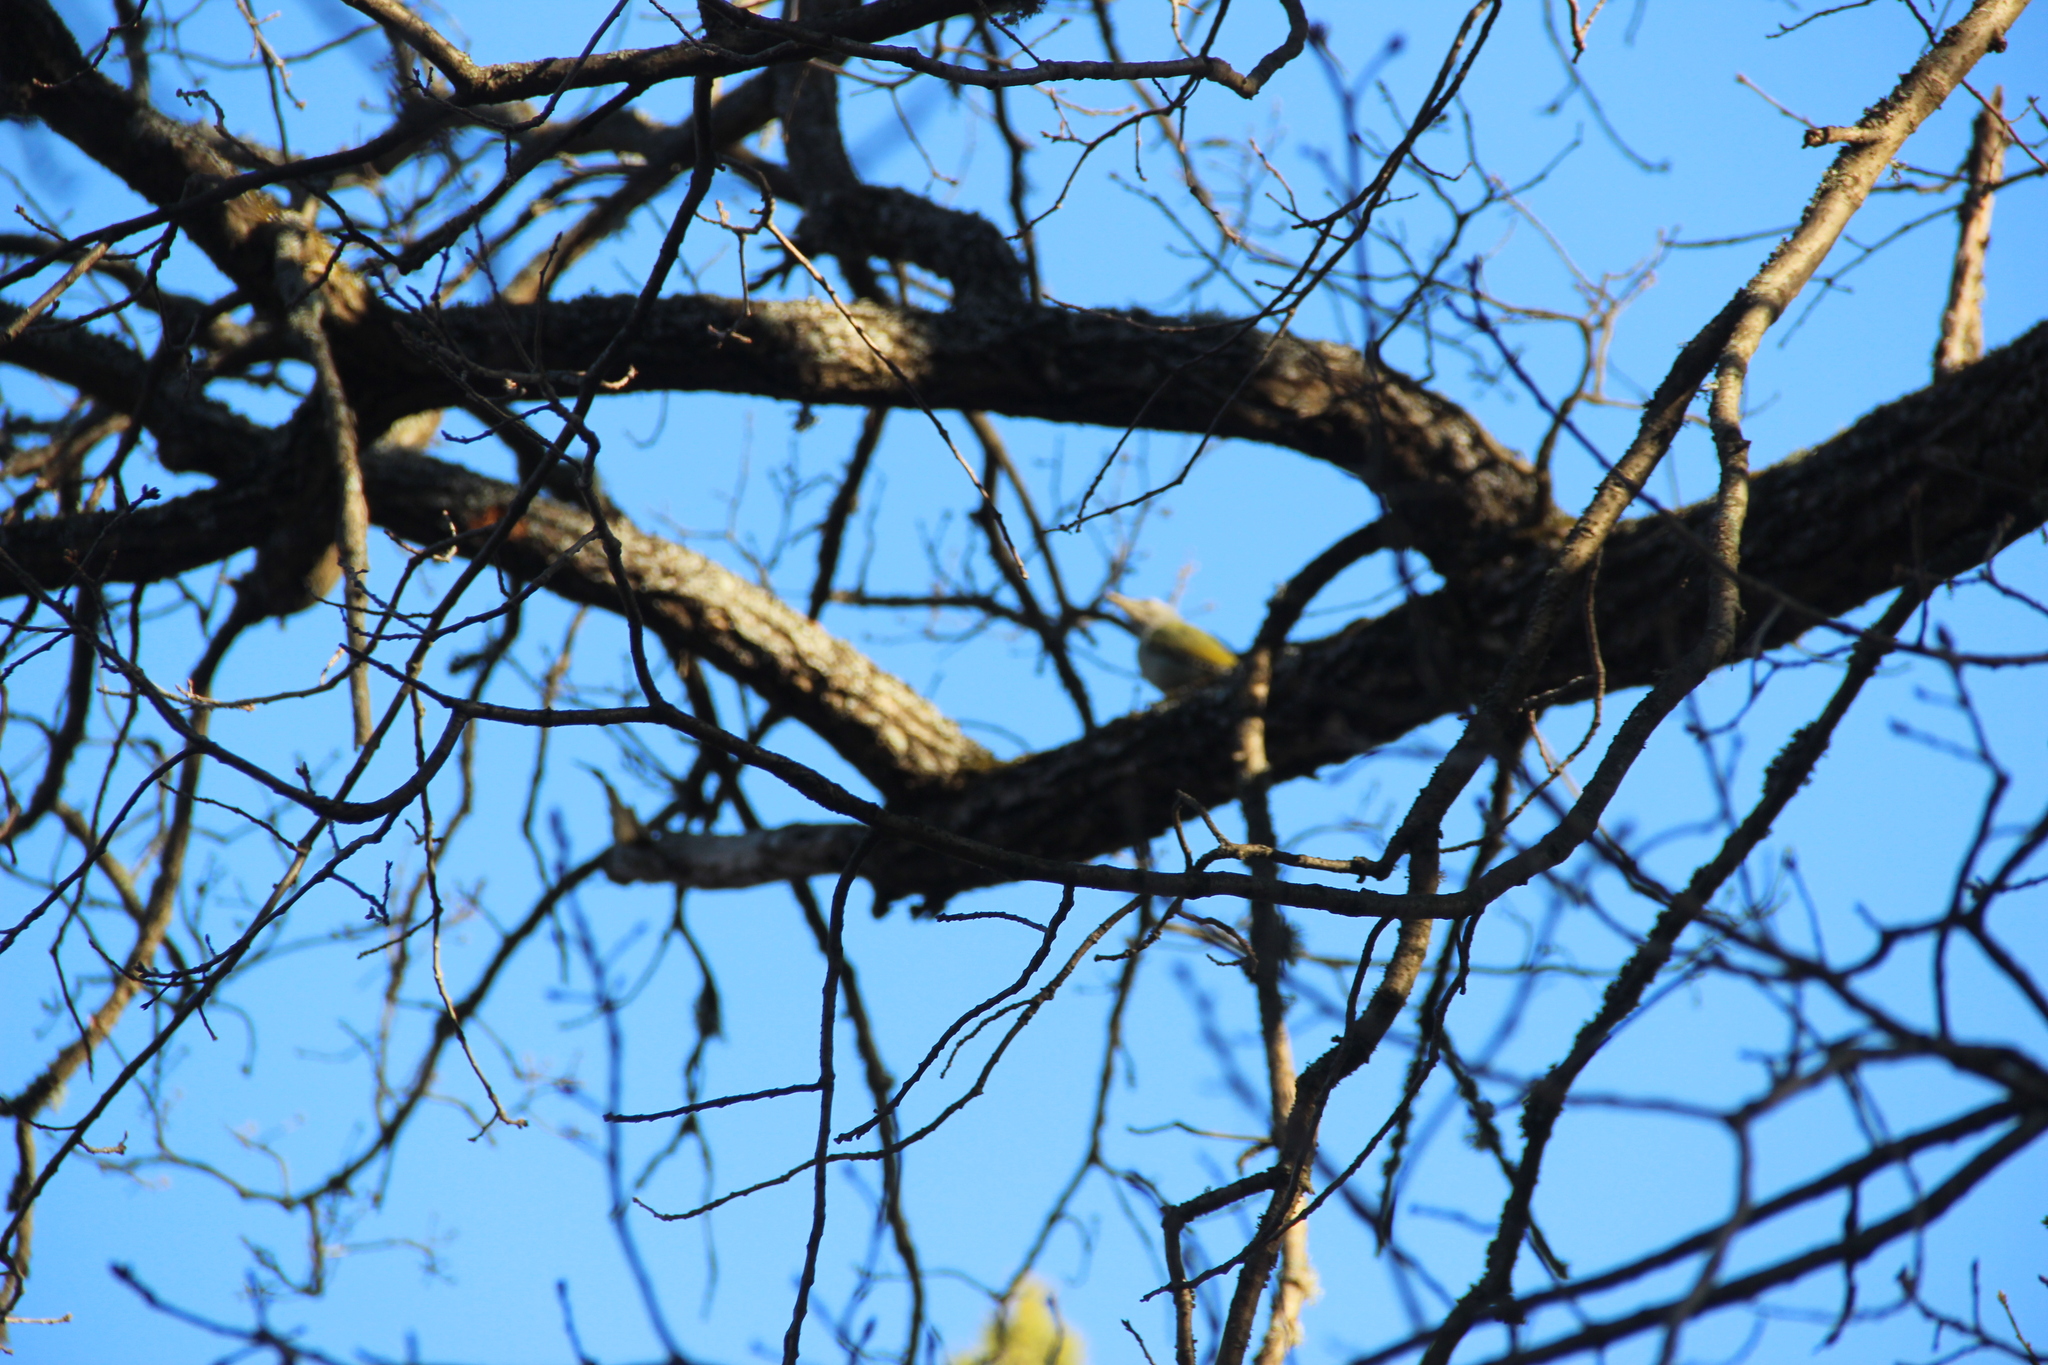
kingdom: Animalia
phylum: Chordata
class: Aves
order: Piciformes
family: Picidae
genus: Picus
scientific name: Picus canus
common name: Grey-headed woodpecker
